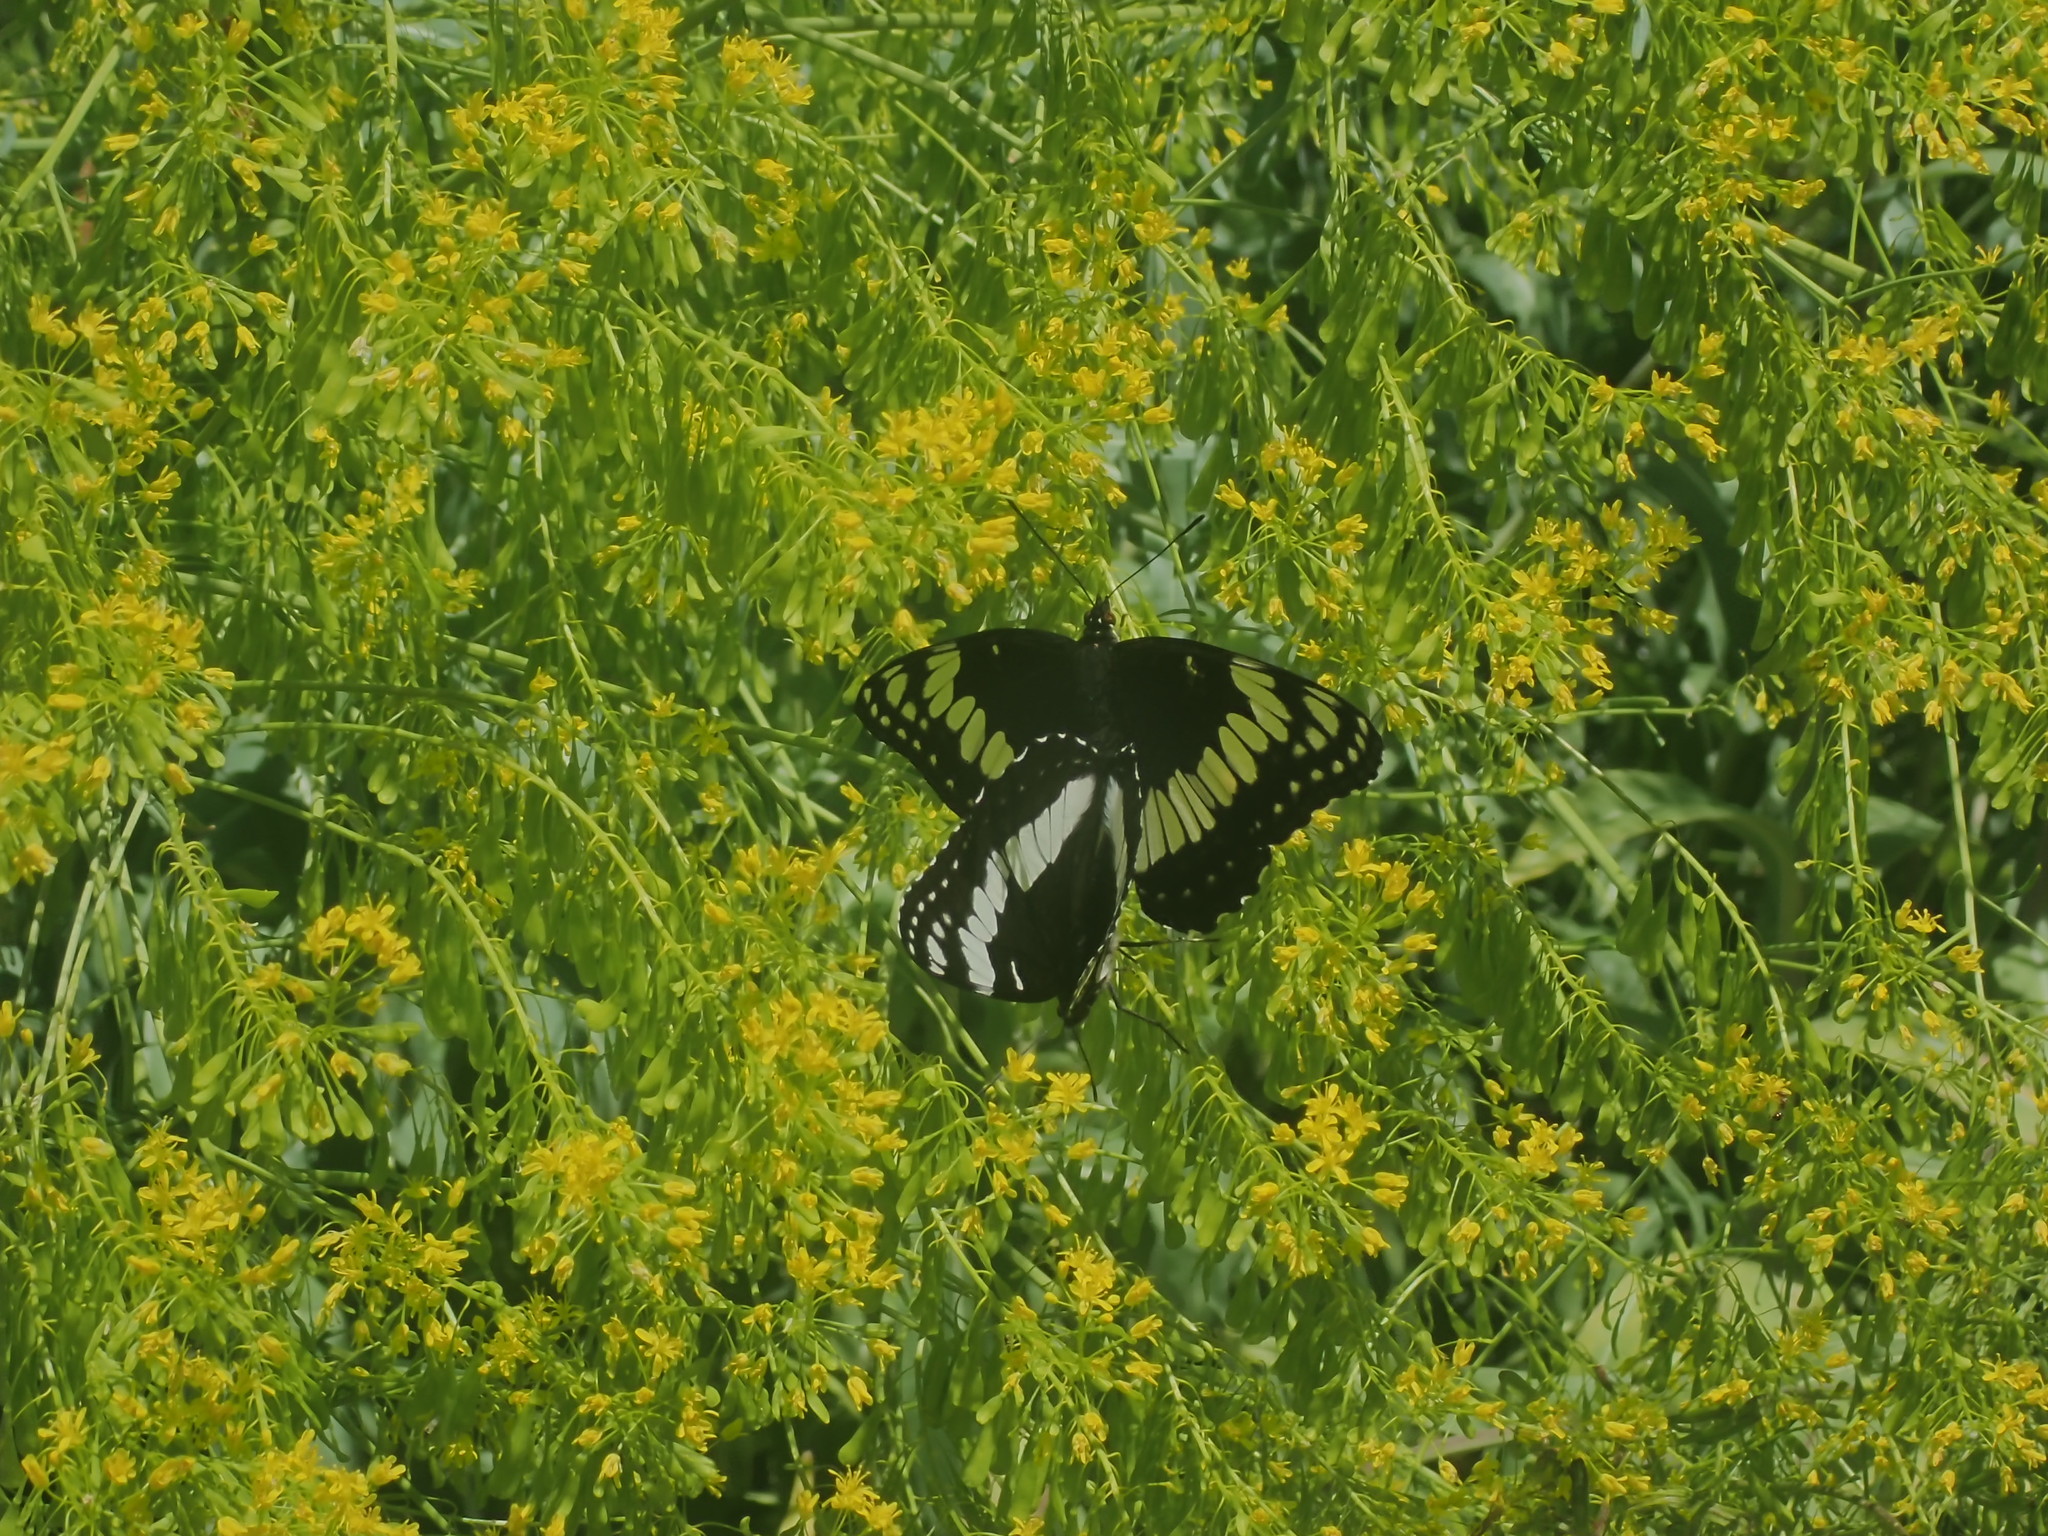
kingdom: Animalia
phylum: Arthropoda
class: Insecta
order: Lepidoptera
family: Nymphalidae
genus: Limenitis
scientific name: Limenitis weidemeyerii
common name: Weidemeyer's admiral
